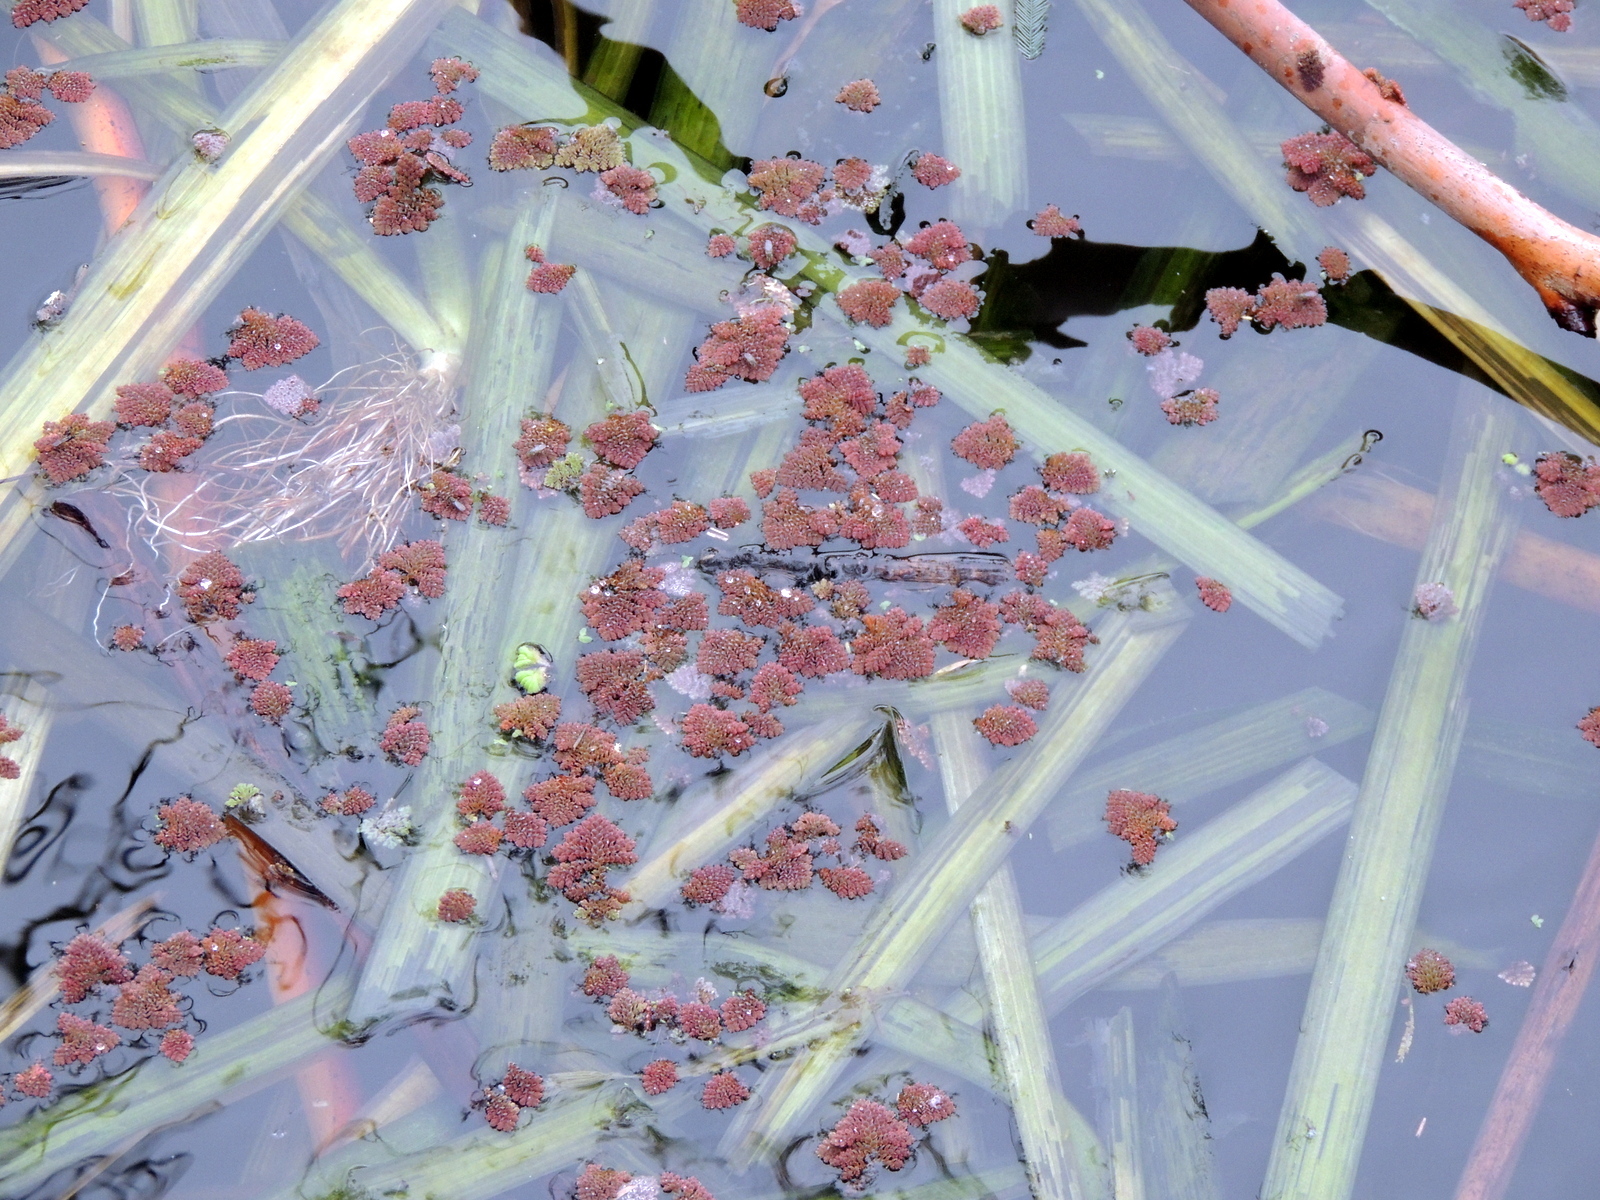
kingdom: Plantae
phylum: Tracheophyta
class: Polypodiopsida
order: Salviniales
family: Salviniaceae
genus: Azolla
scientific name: Azolla pinnata
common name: Ferny azolla
